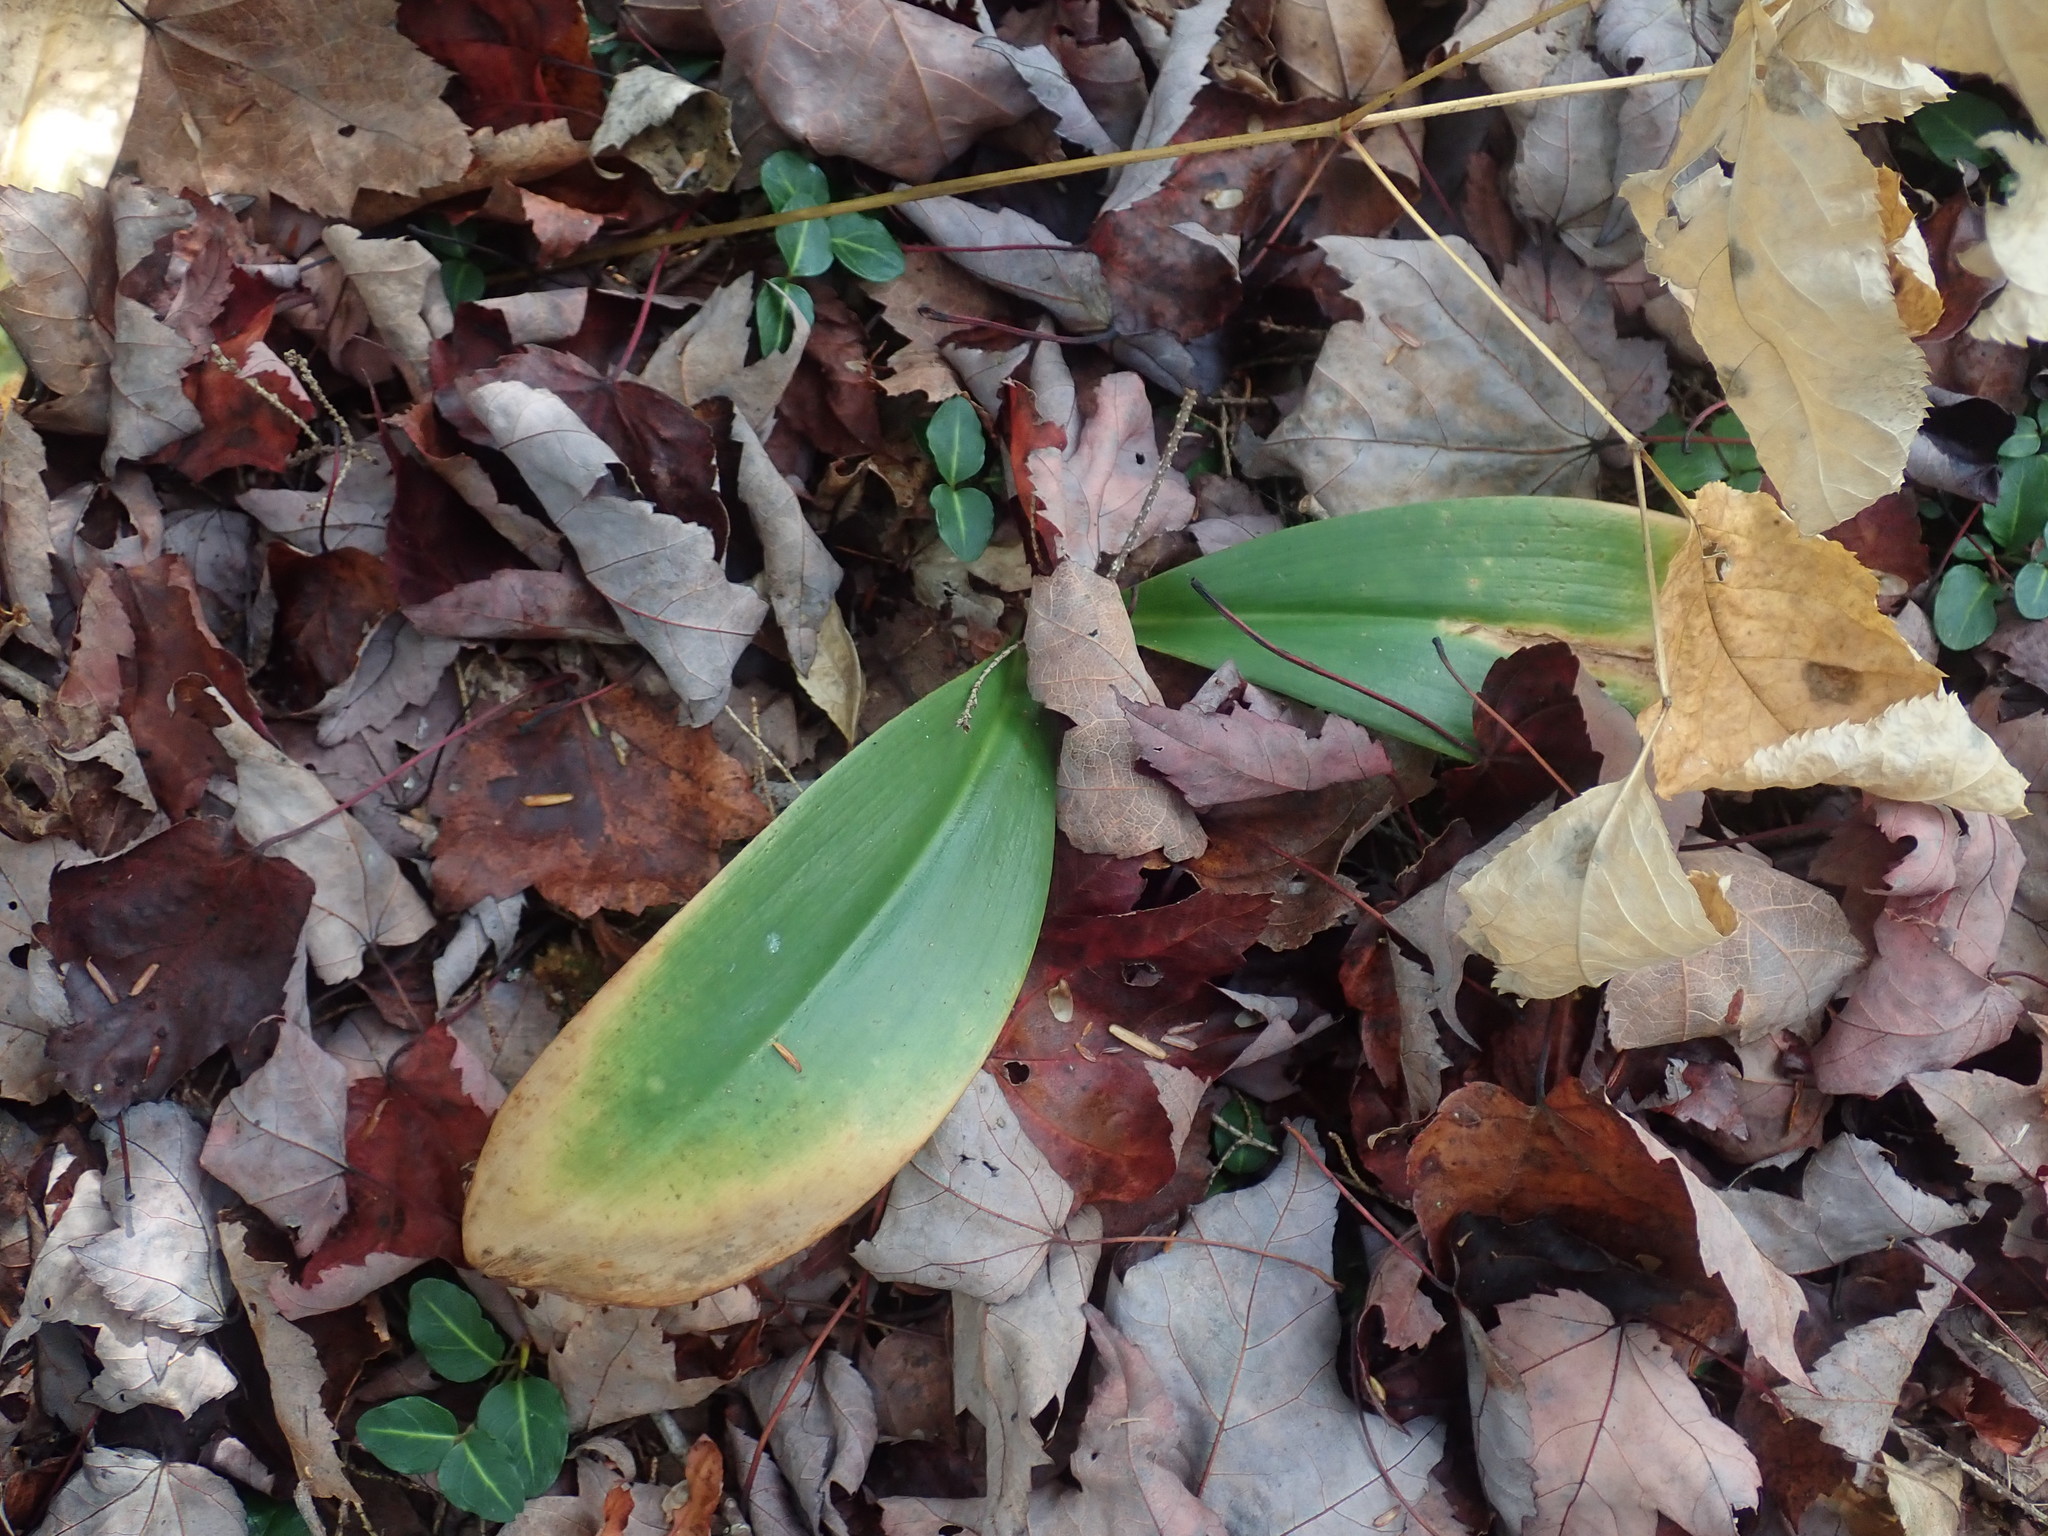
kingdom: Plantae
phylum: Tracheophyta
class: Liliopsida
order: Liliales
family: Liliaceae
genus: Clintonia
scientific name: Clintonia borealis
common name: Yellow clintonia
